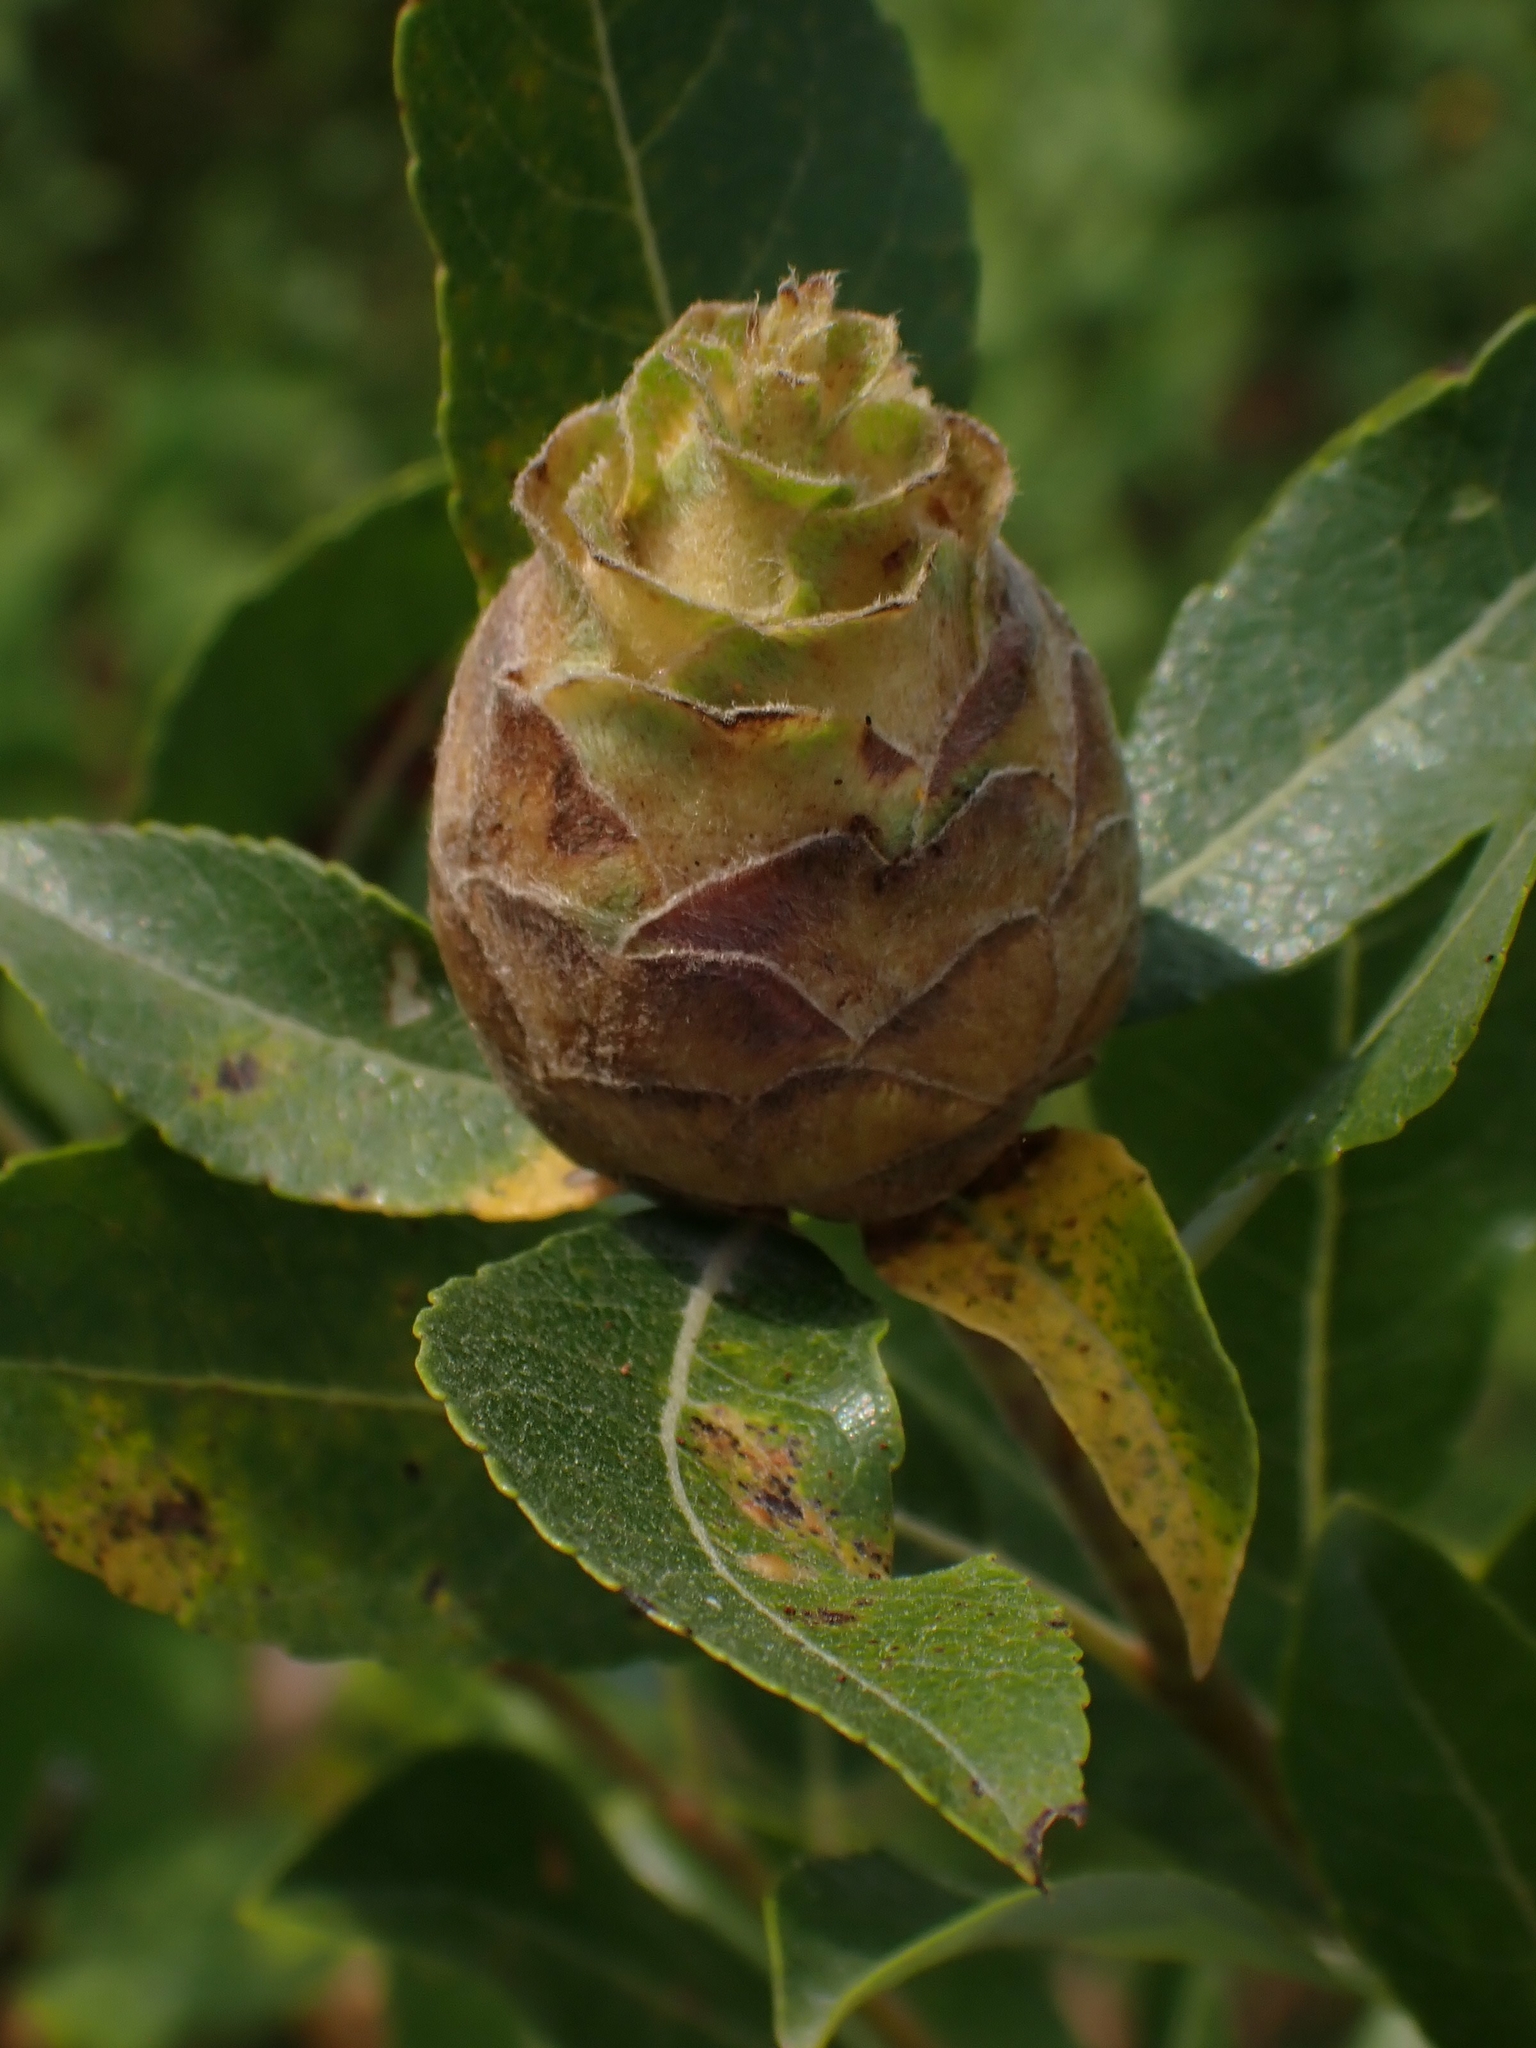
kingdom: Animalia
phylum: Arthropoda
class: Insecta
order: Diptera
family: Cecidomyiidae
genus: Rabdophaga
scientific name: Rabdophaga strobiloides
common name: Willow pinecone gall midge
